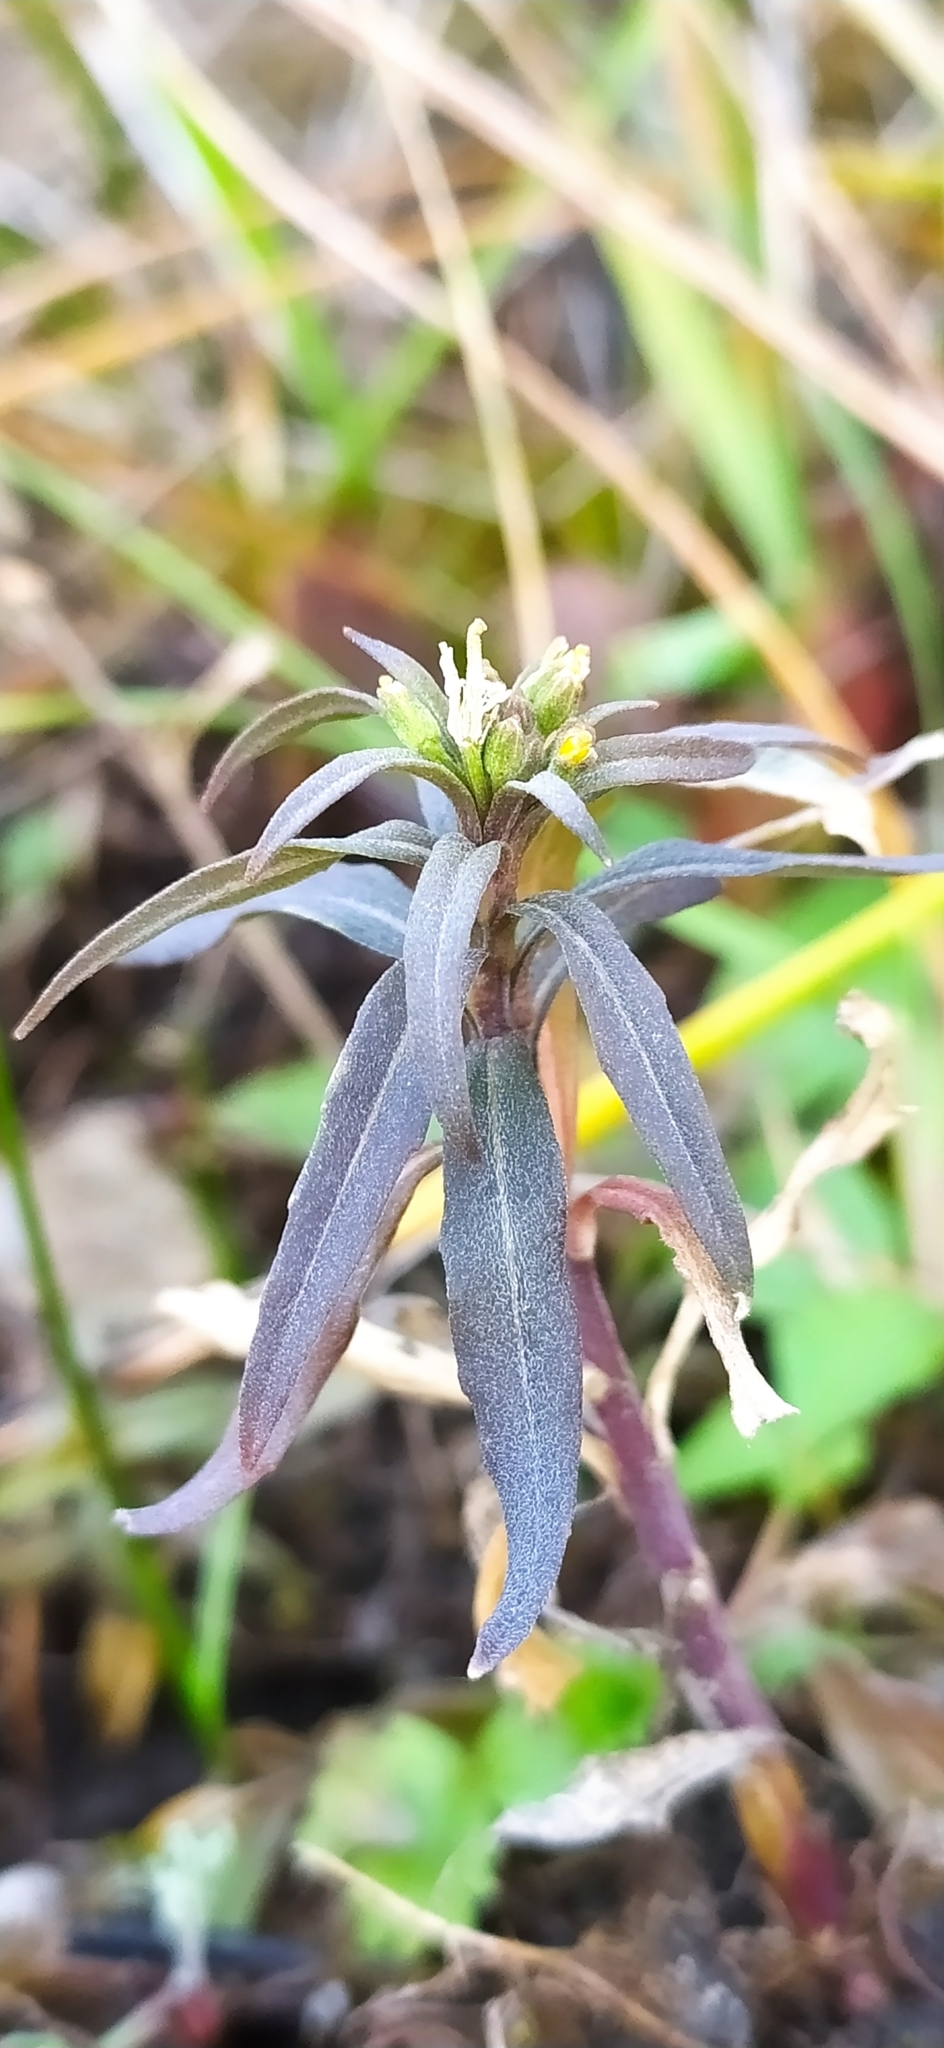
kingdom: Plantae
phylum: Tracheophyta
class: Magnoliopsida
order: Brassicales
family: Brassicaceae
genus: Erysimum
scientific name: Erysimum marschallianum
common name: Hard wallflower
